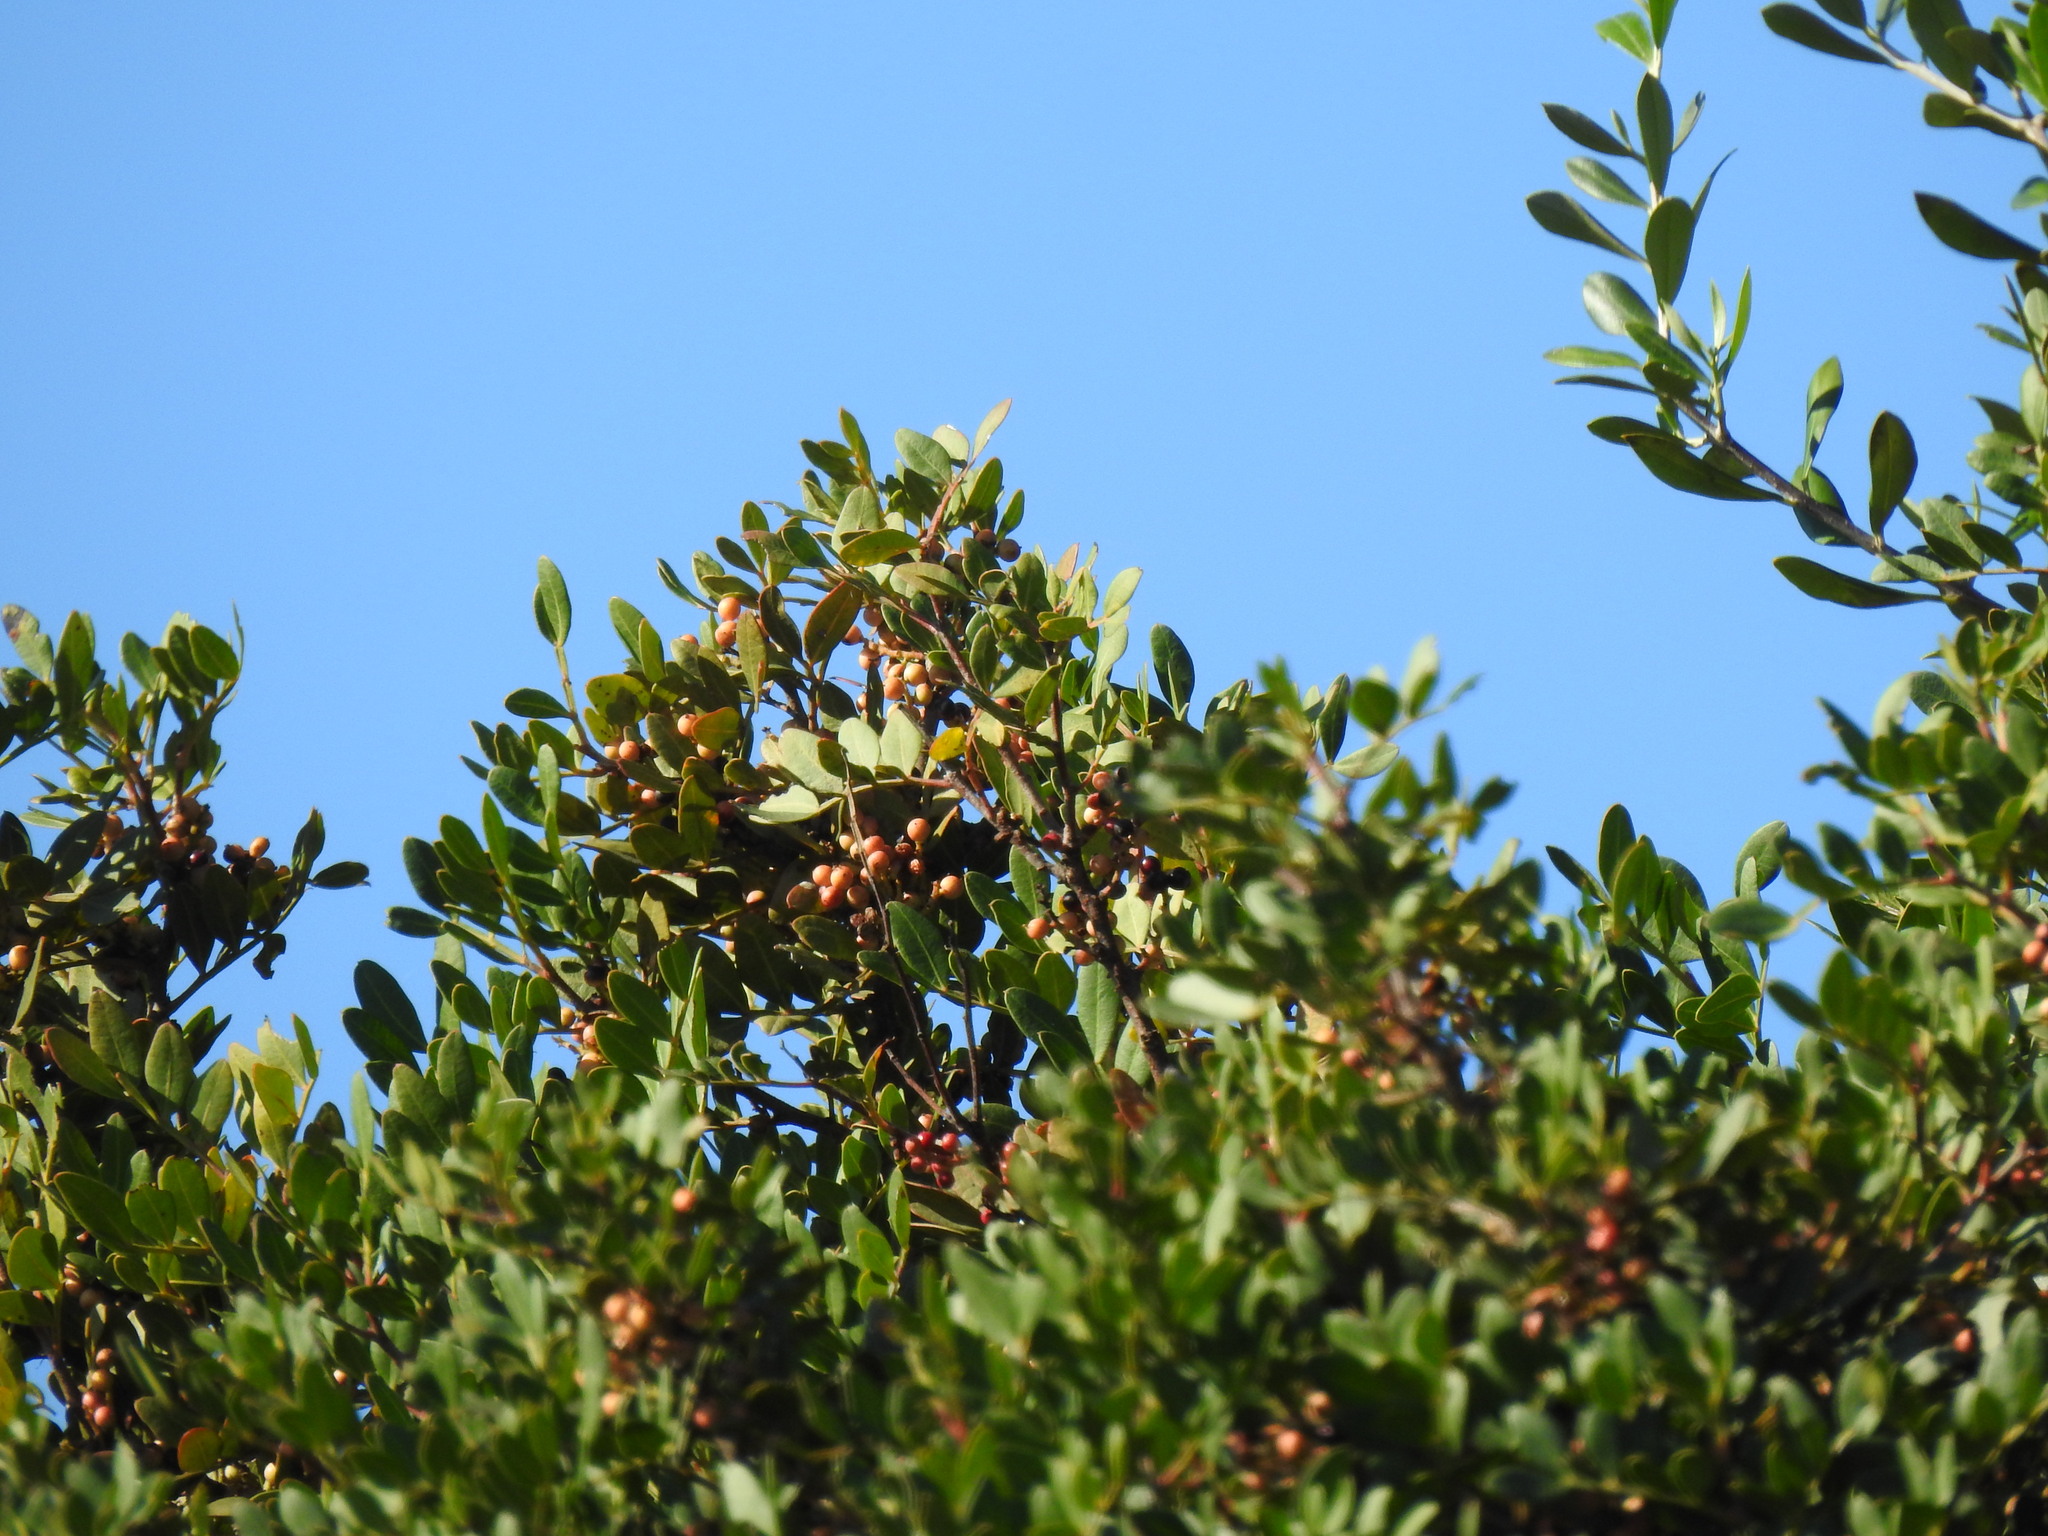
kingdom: Plantae
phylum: Tracheophyta
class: Magnoliopsida
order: Sapindales
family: Anacardiaceae
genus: Pistacia
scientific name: Pistacia lentiscus
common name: Lentisk
